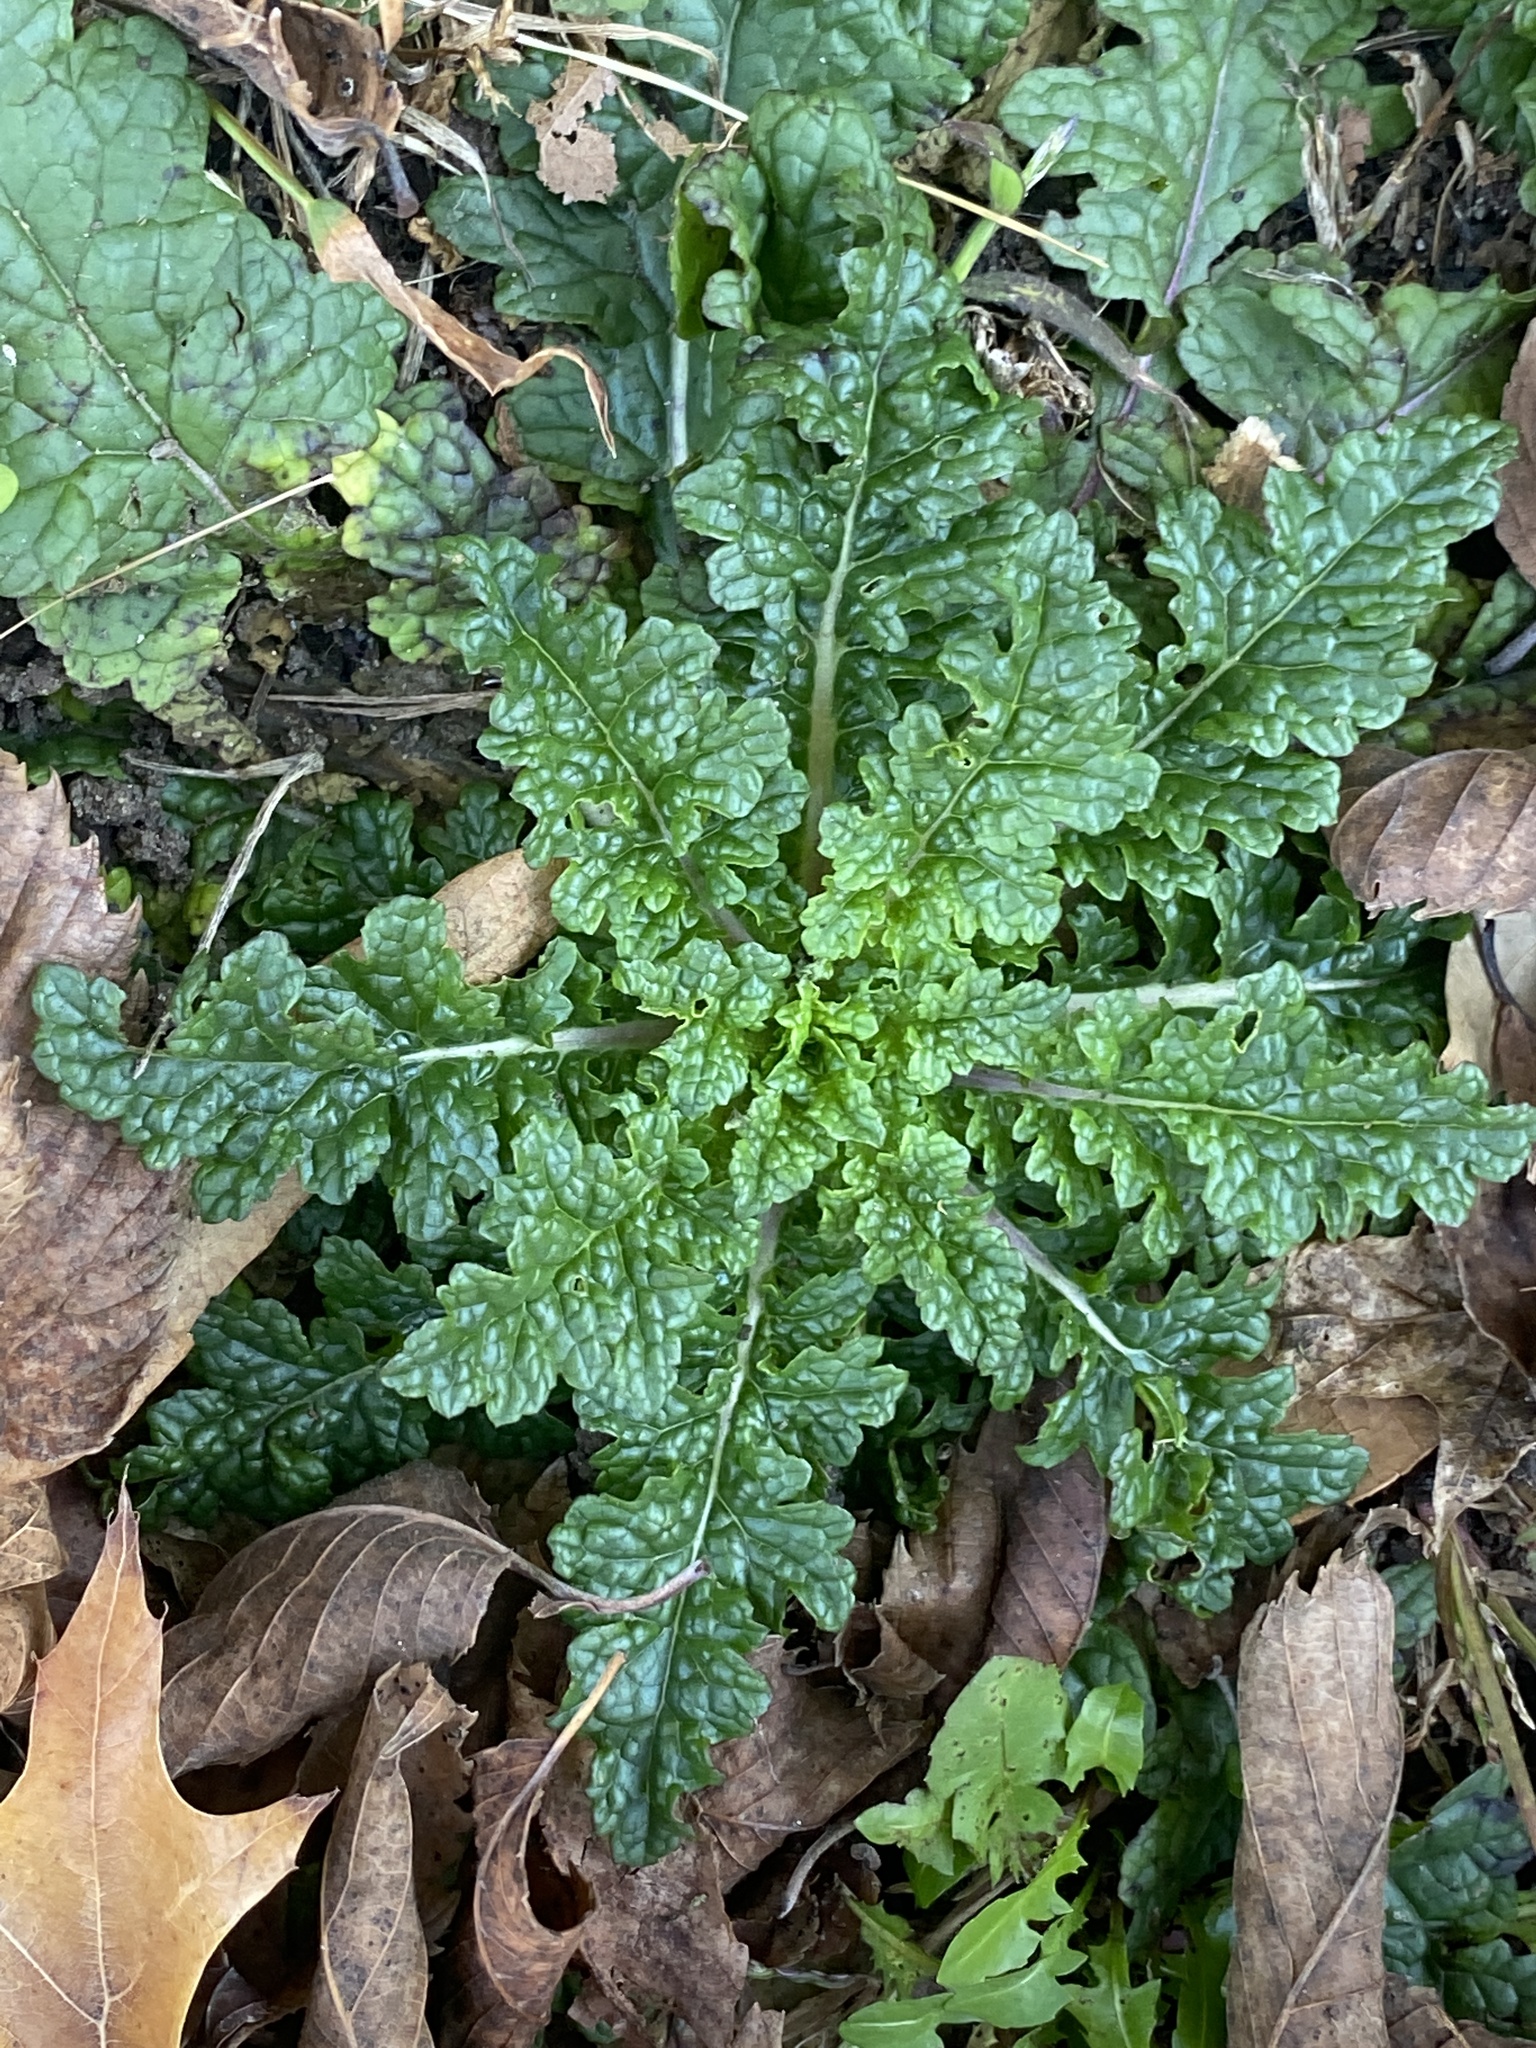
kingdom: Plantae
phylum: Tracheophyta
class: Magnoliopsida
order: Lamiales
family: Scrophulariaceae
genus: Verbascum
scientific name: Verbascum blattaria
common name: Moth mullein
